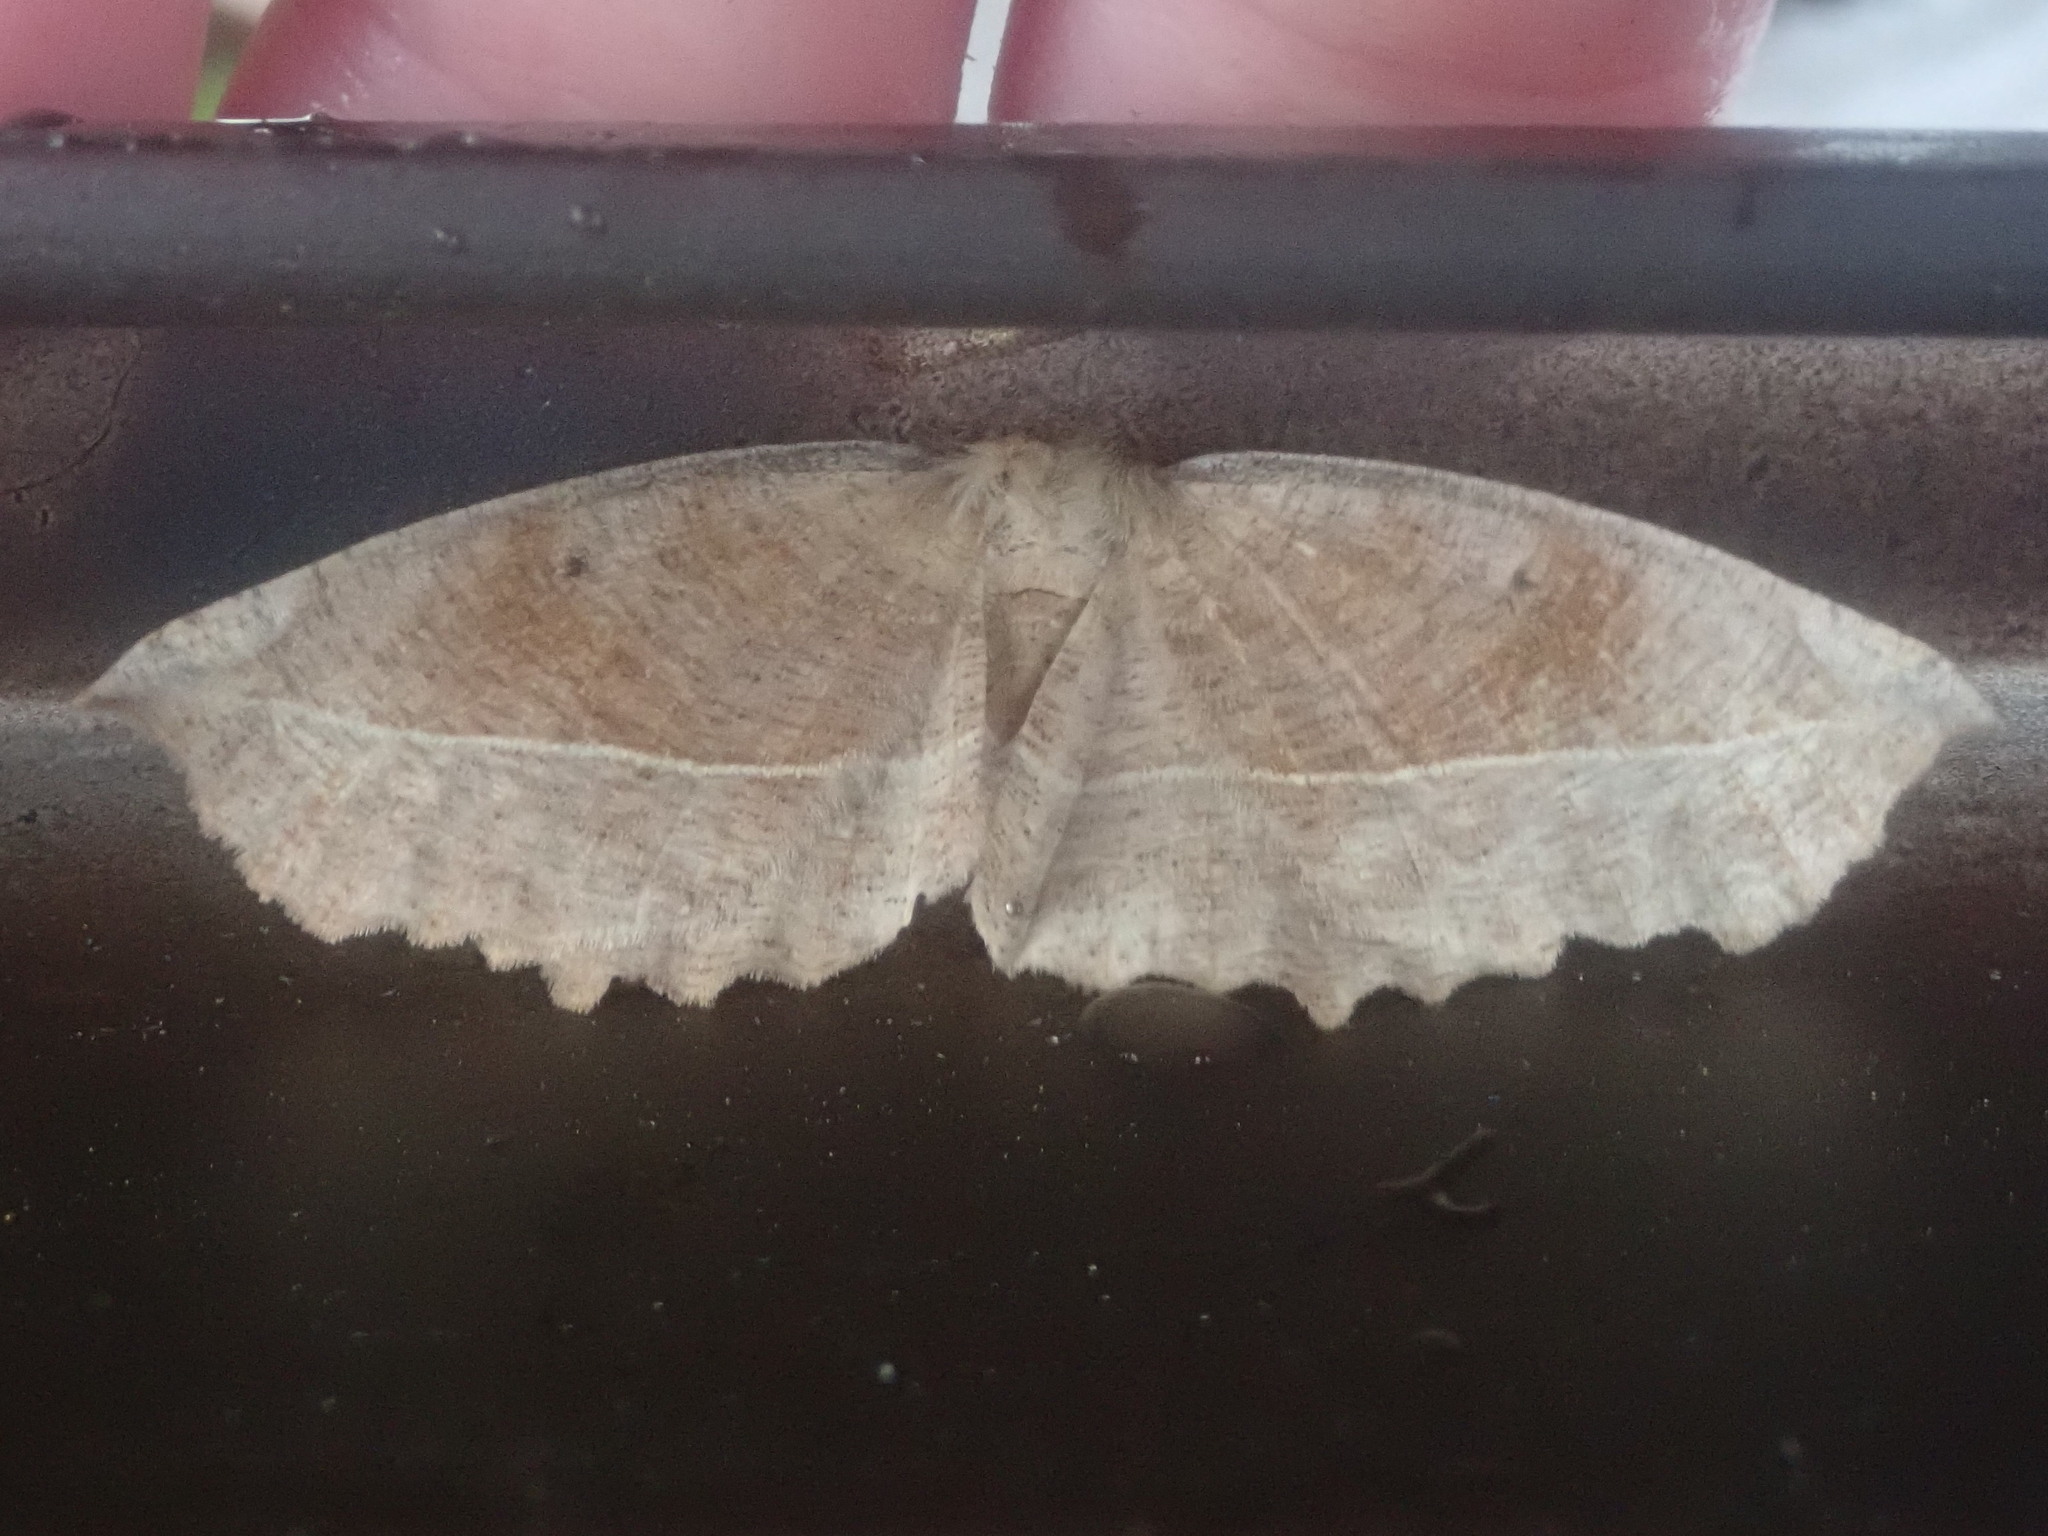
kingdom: Animalia
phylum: Arthropoda
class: Insecta
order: Lepidoptera
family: Geometridae
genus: Eutrapela
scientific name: Eutrapela clemataria
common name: Curved-toothed geometer
